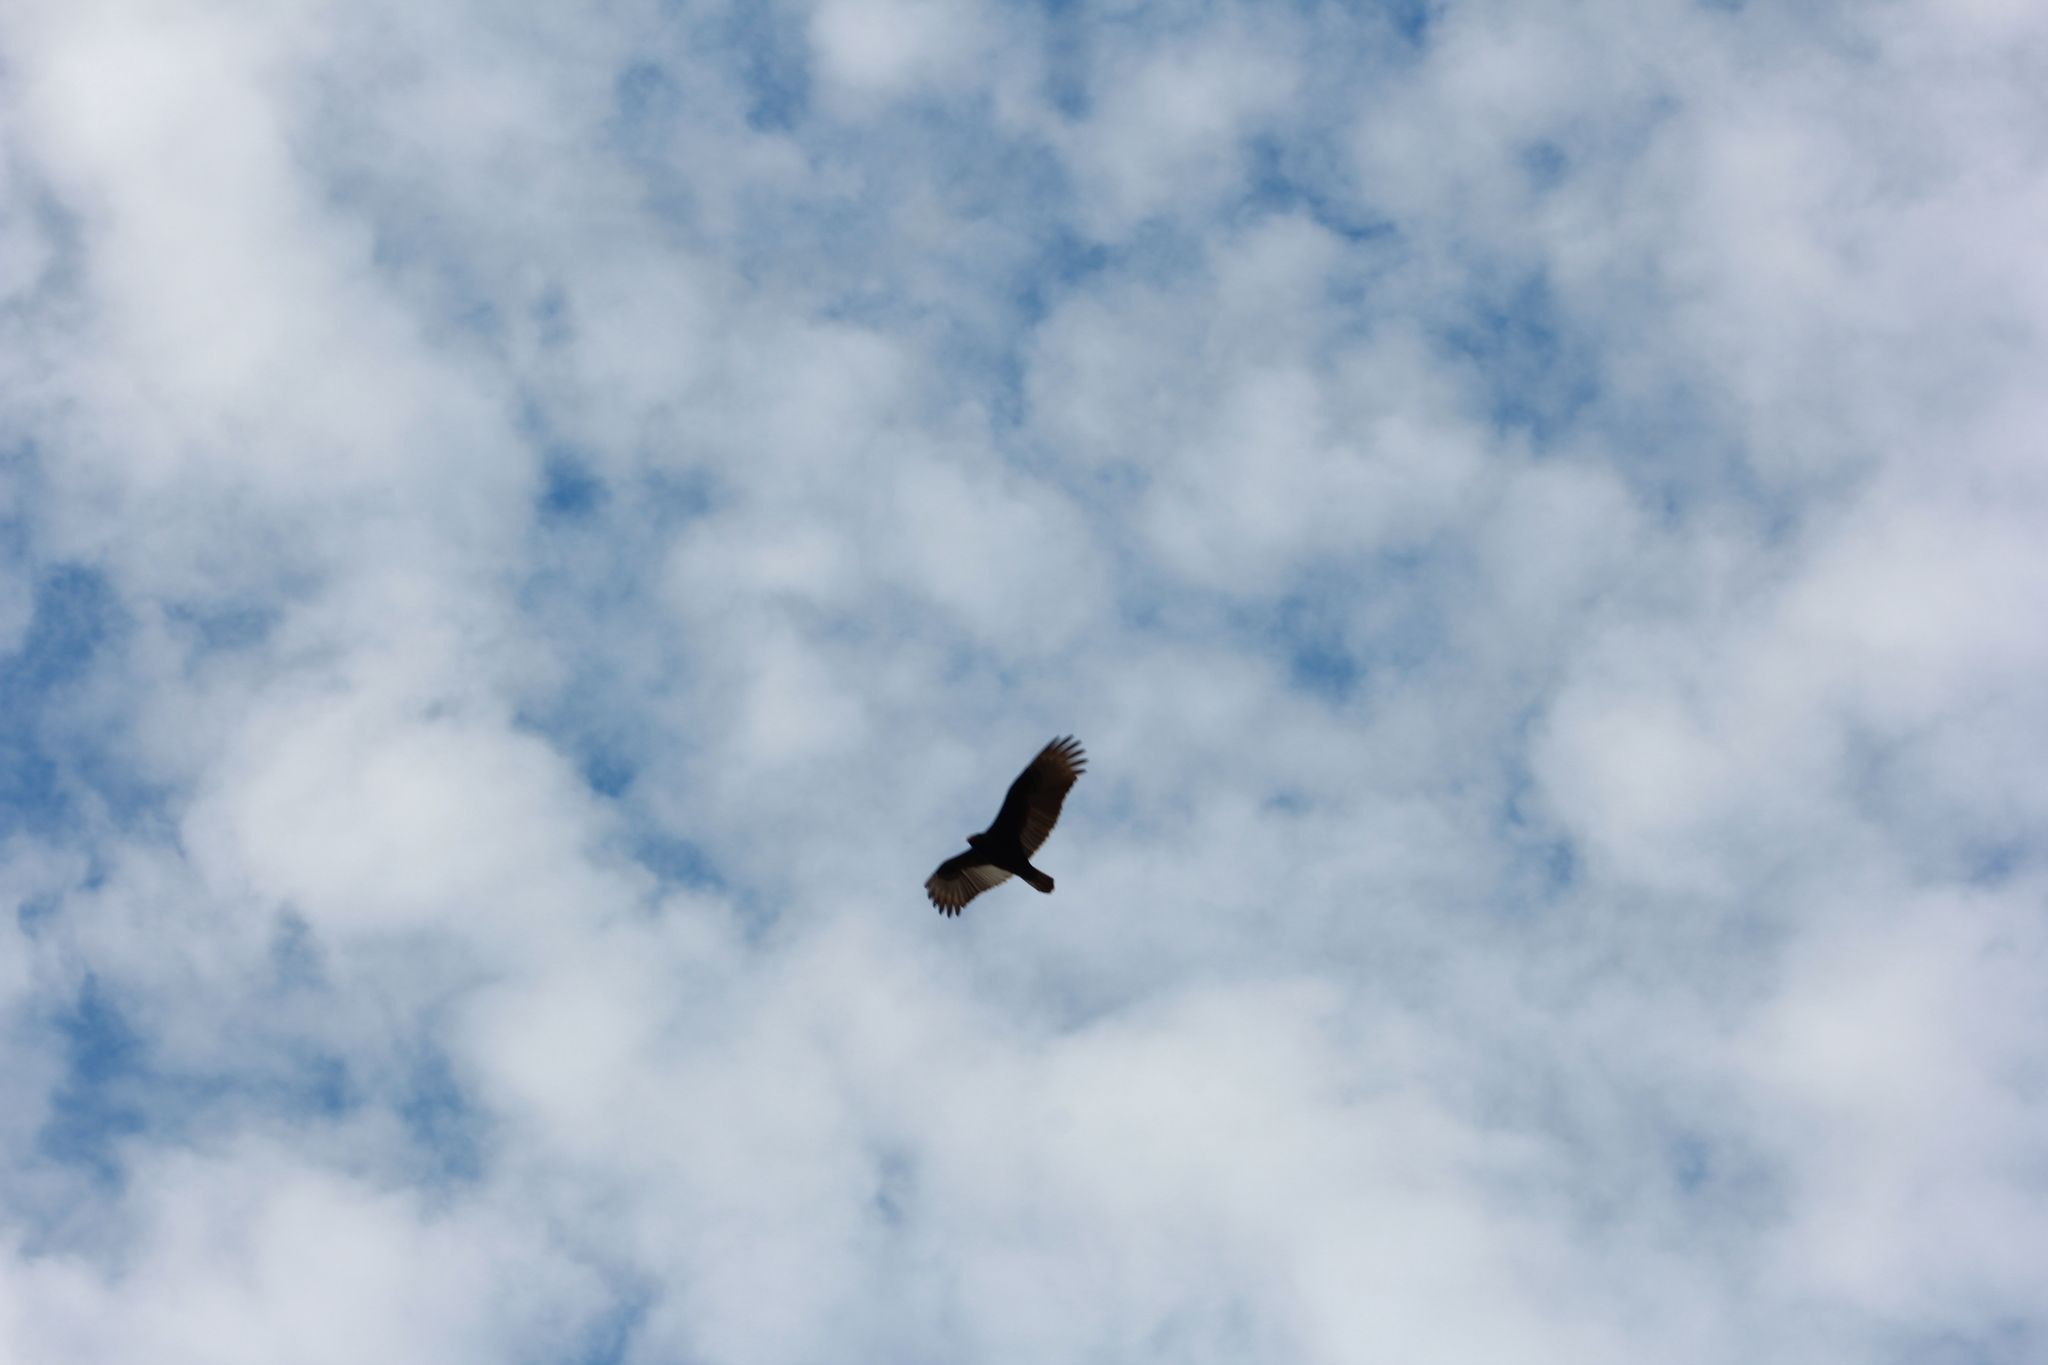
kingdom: Animalia
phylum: Chordata
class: Aves
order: Accipitriformes
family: Cathartidae
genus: Cathartes
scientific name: Cathartes aura
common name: Turkey vulture
